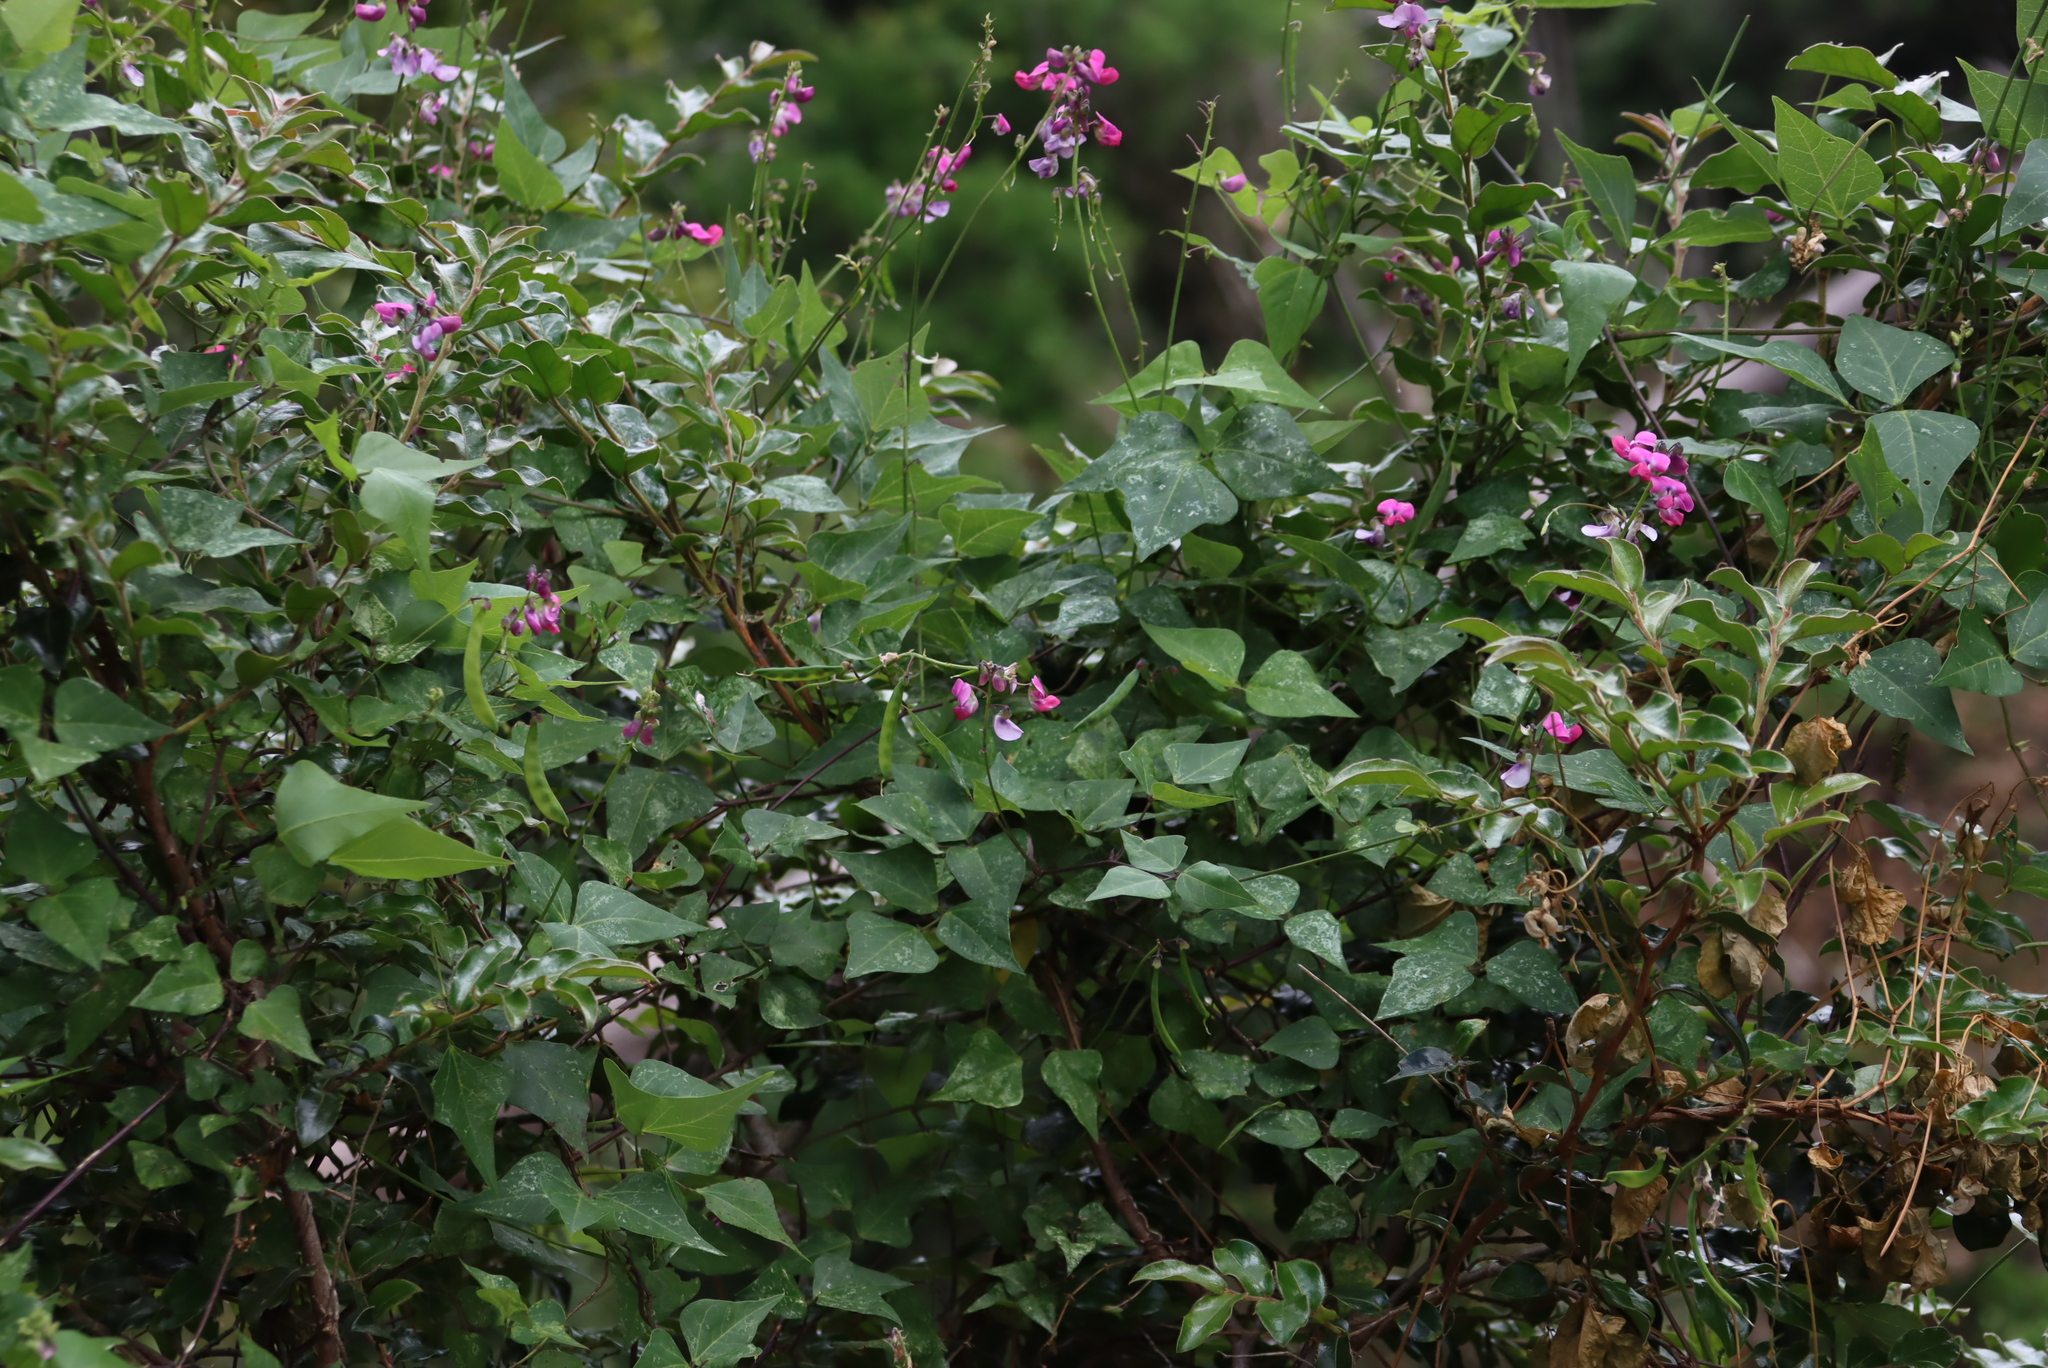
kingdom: Plantae
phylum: Tracheophyta
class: Magnoliopsida
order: Fabales
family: Fabaceae
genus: Dipogon
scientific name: Dipogon lignosus
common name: Okie bean
